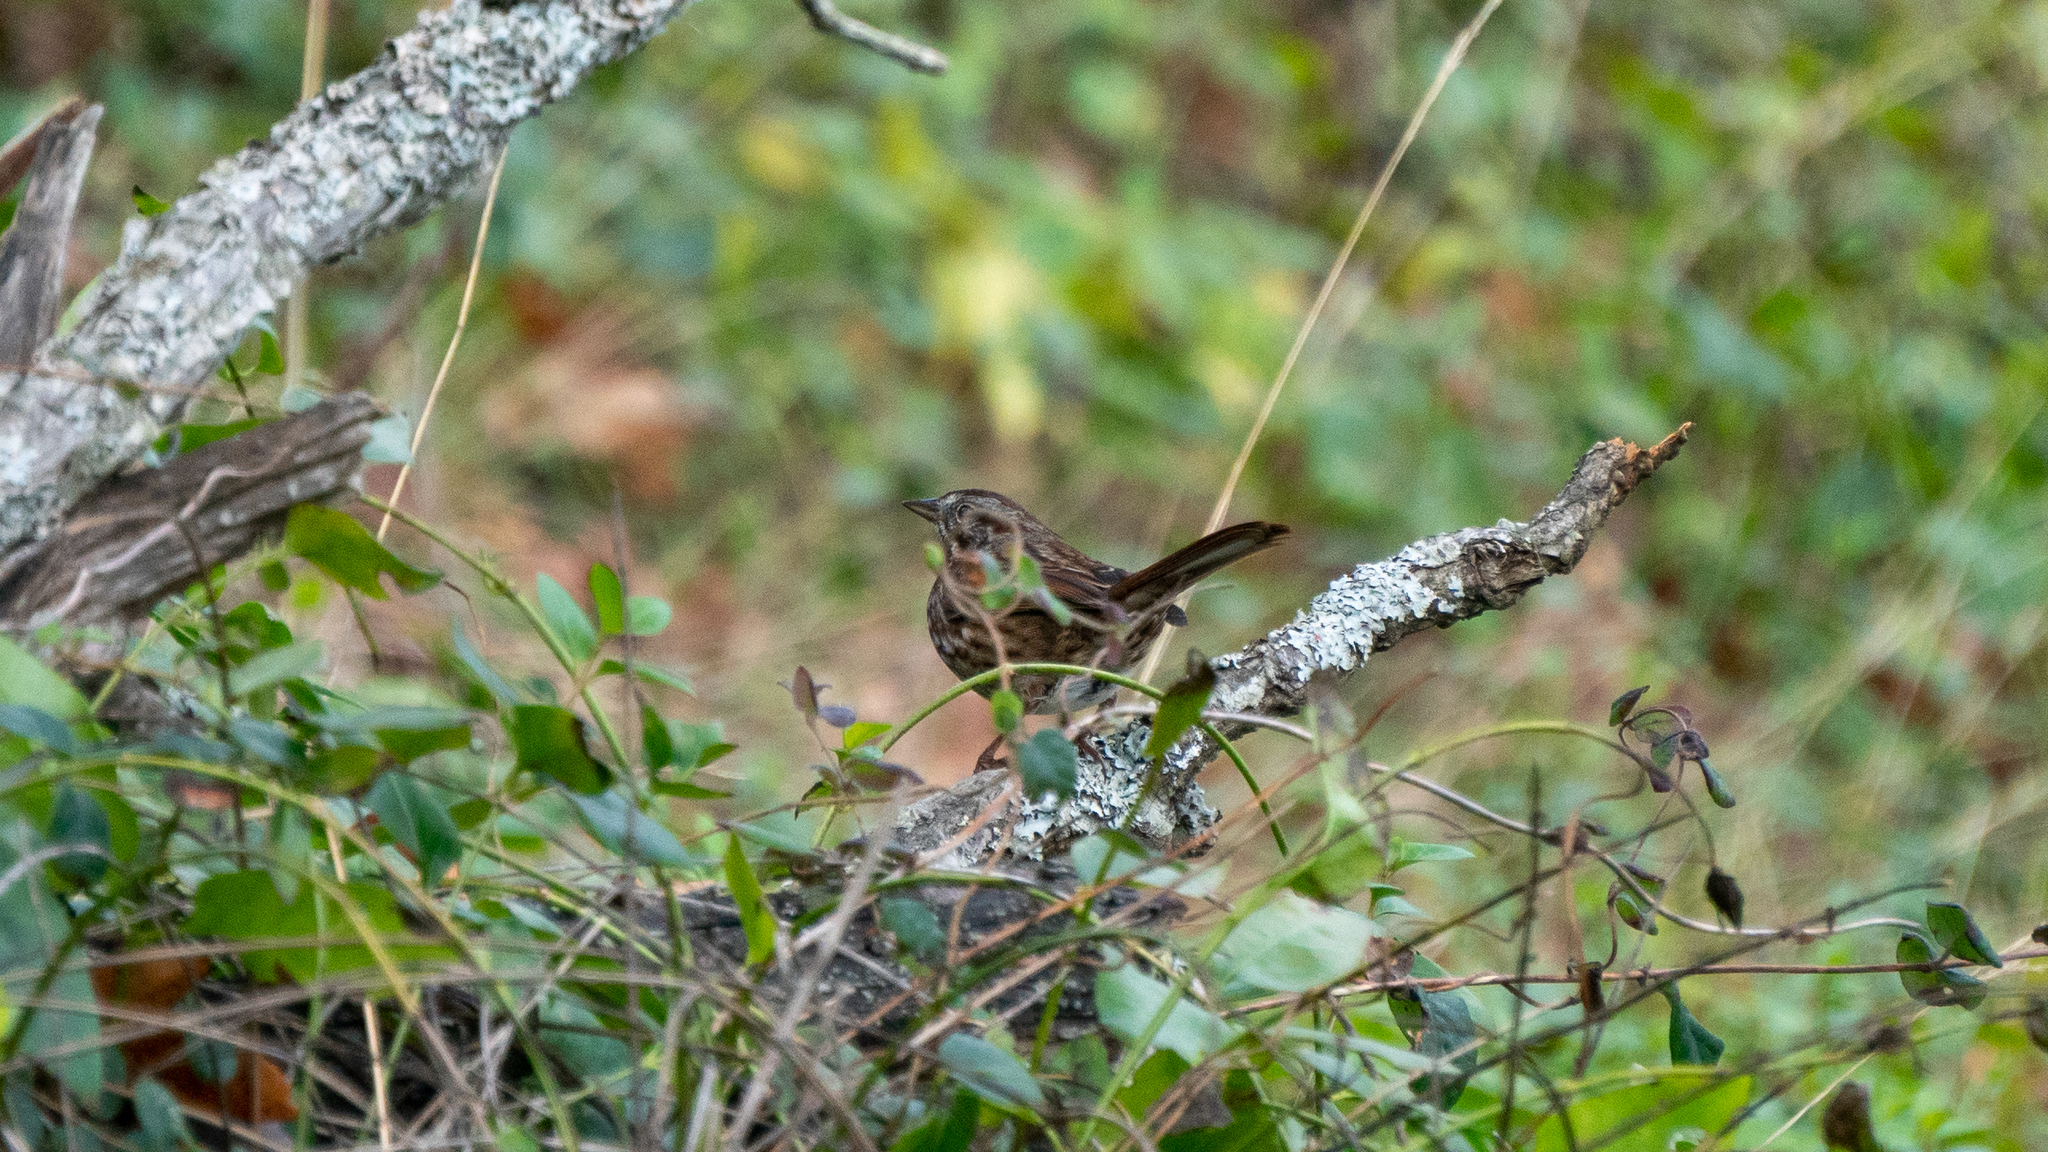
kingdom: Animalia
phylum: Chordata
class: Aves
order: Passeriformes
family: Passerellidae
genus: Melospiza
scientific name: Melospiza melodia
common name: Song sparrow
